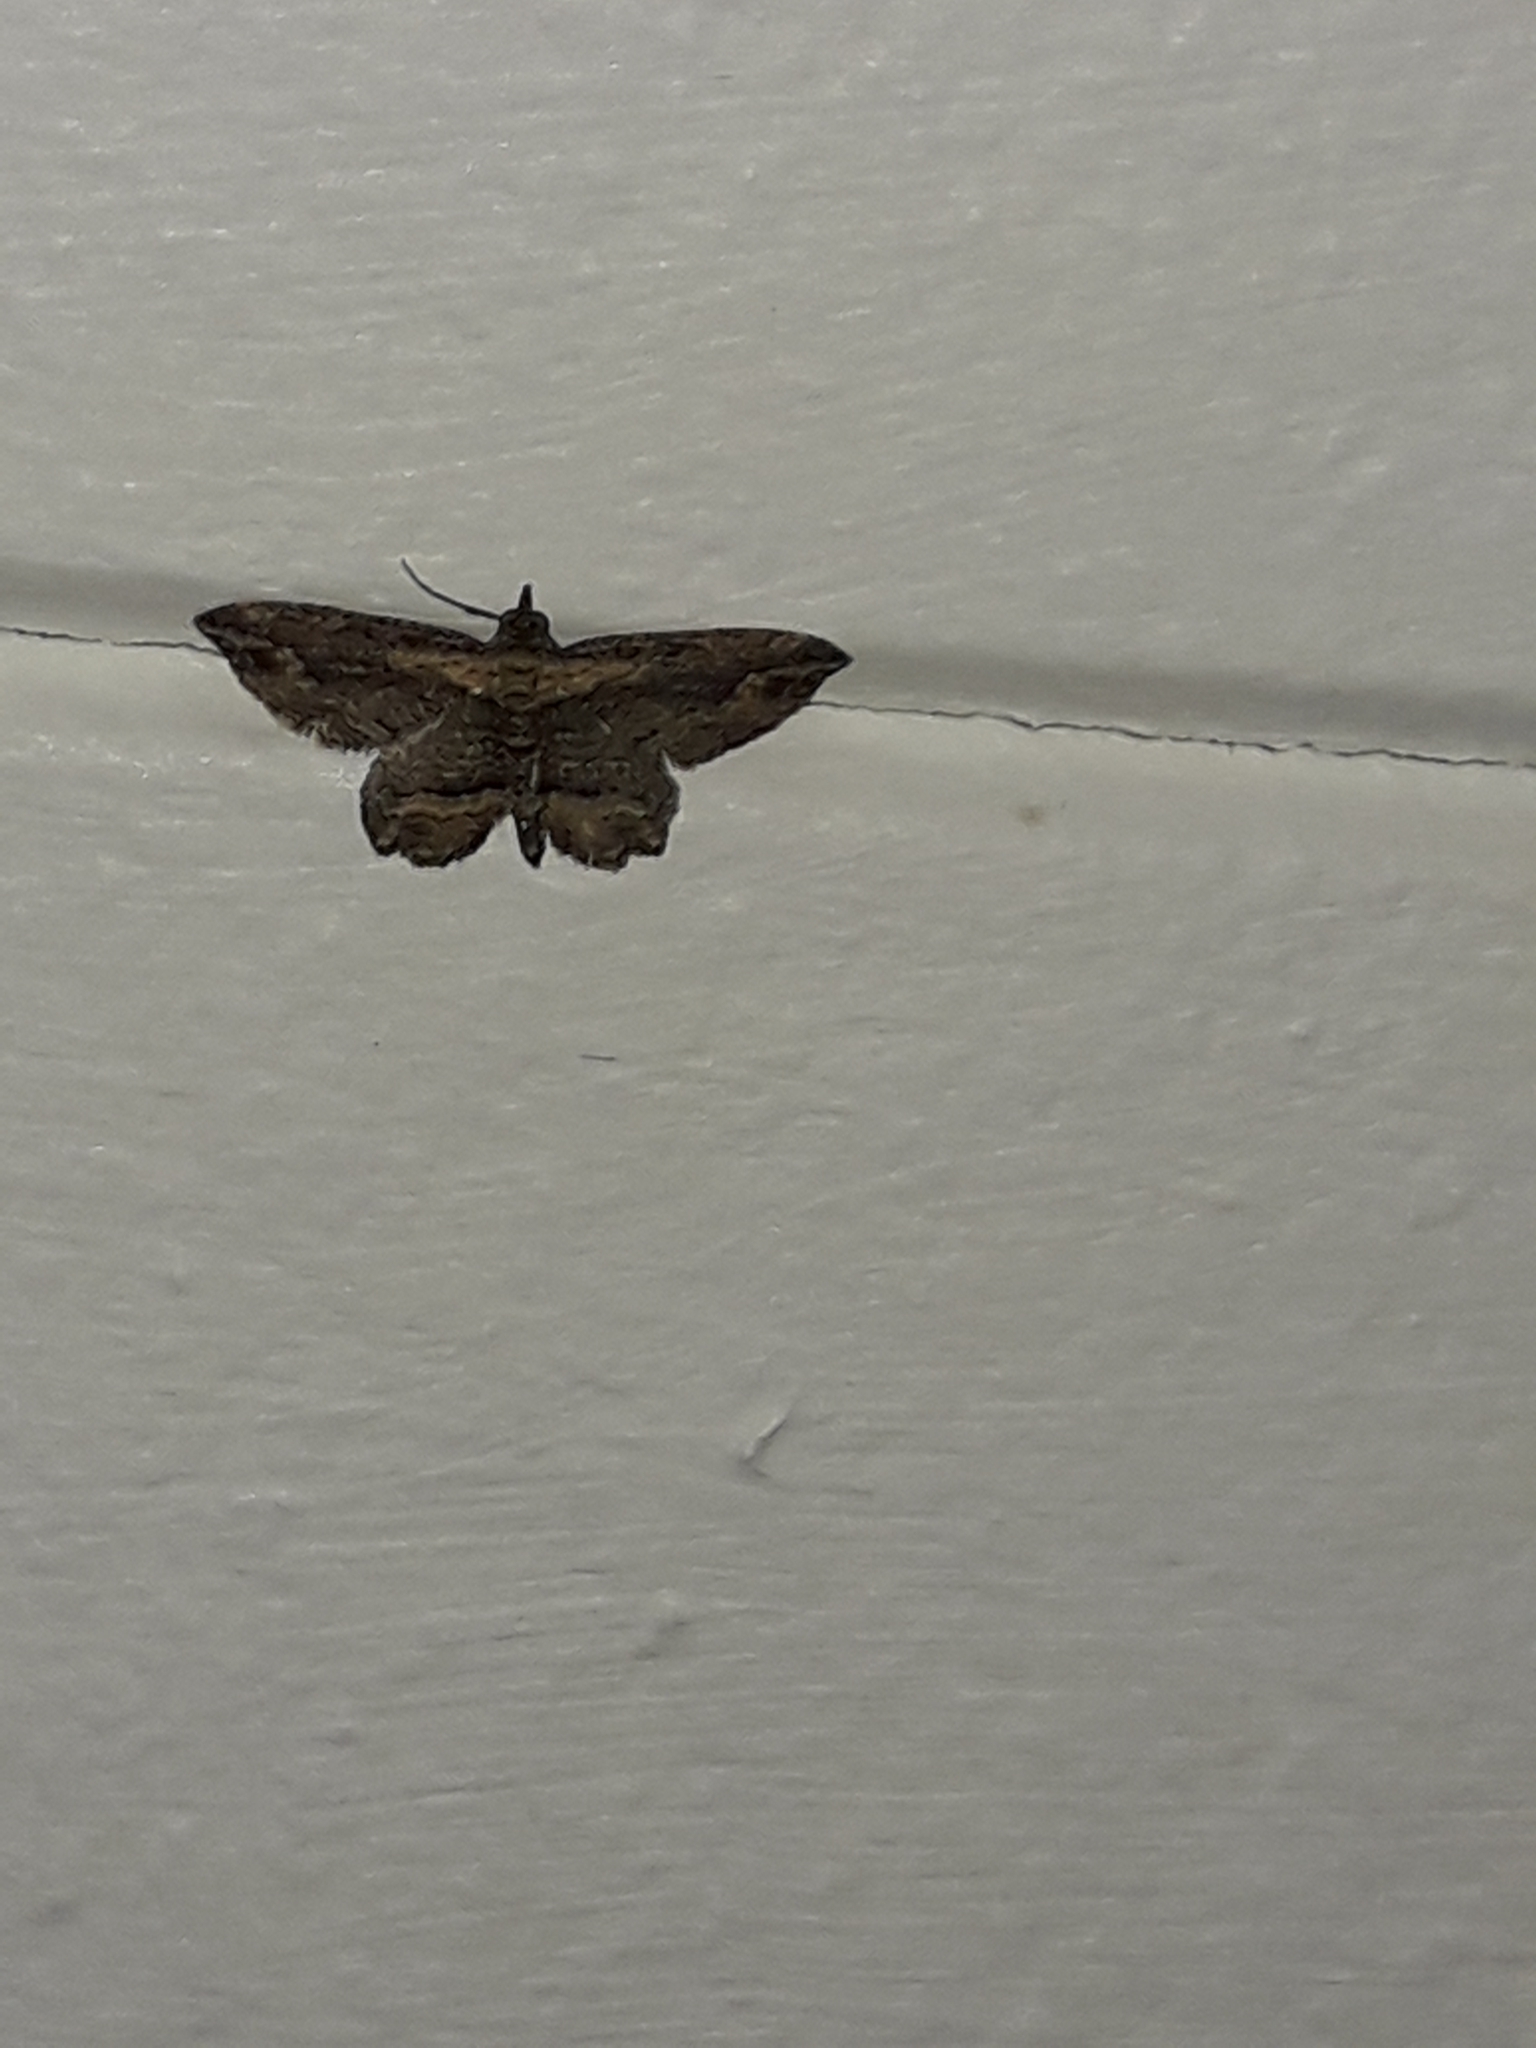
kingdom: Animalia
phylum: Arthropoda
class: Insecta
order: Lepidoptera
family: Geometridae
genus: Chloroclystis
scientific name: Chloroclystis filata
